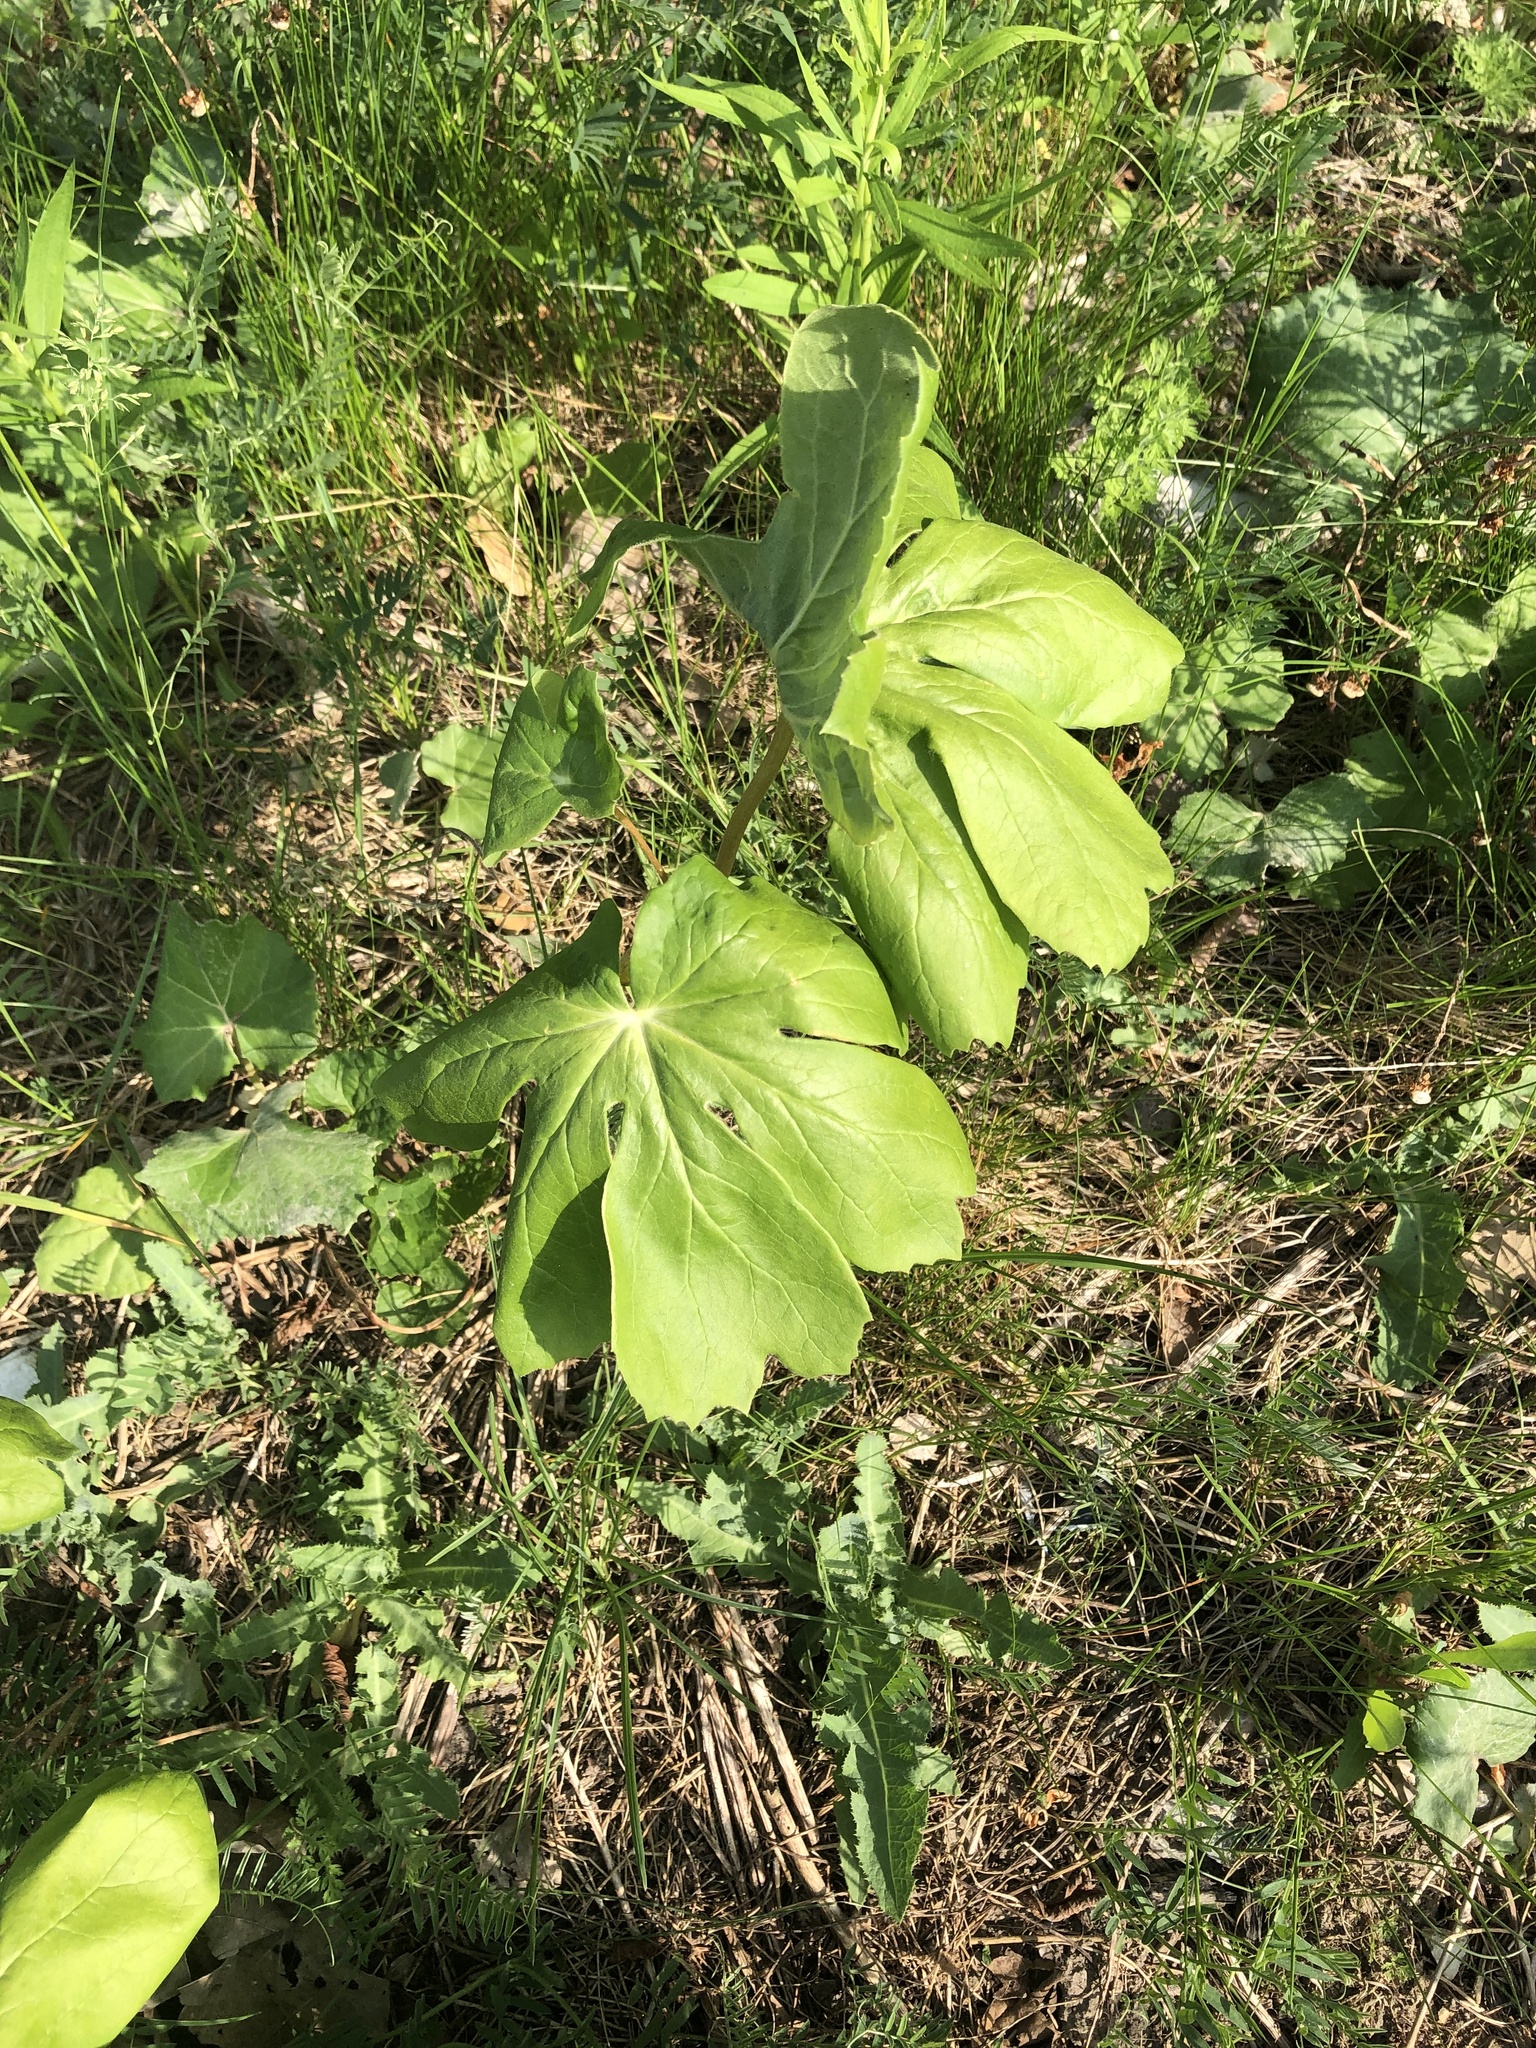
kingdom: Plantae
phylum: Tracheophyta
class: Magnoliopsida
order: Ranunculales
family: Berberidaceae
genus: Podophyllum
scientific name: Podophyllum peltatum
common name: Wild mandrake
